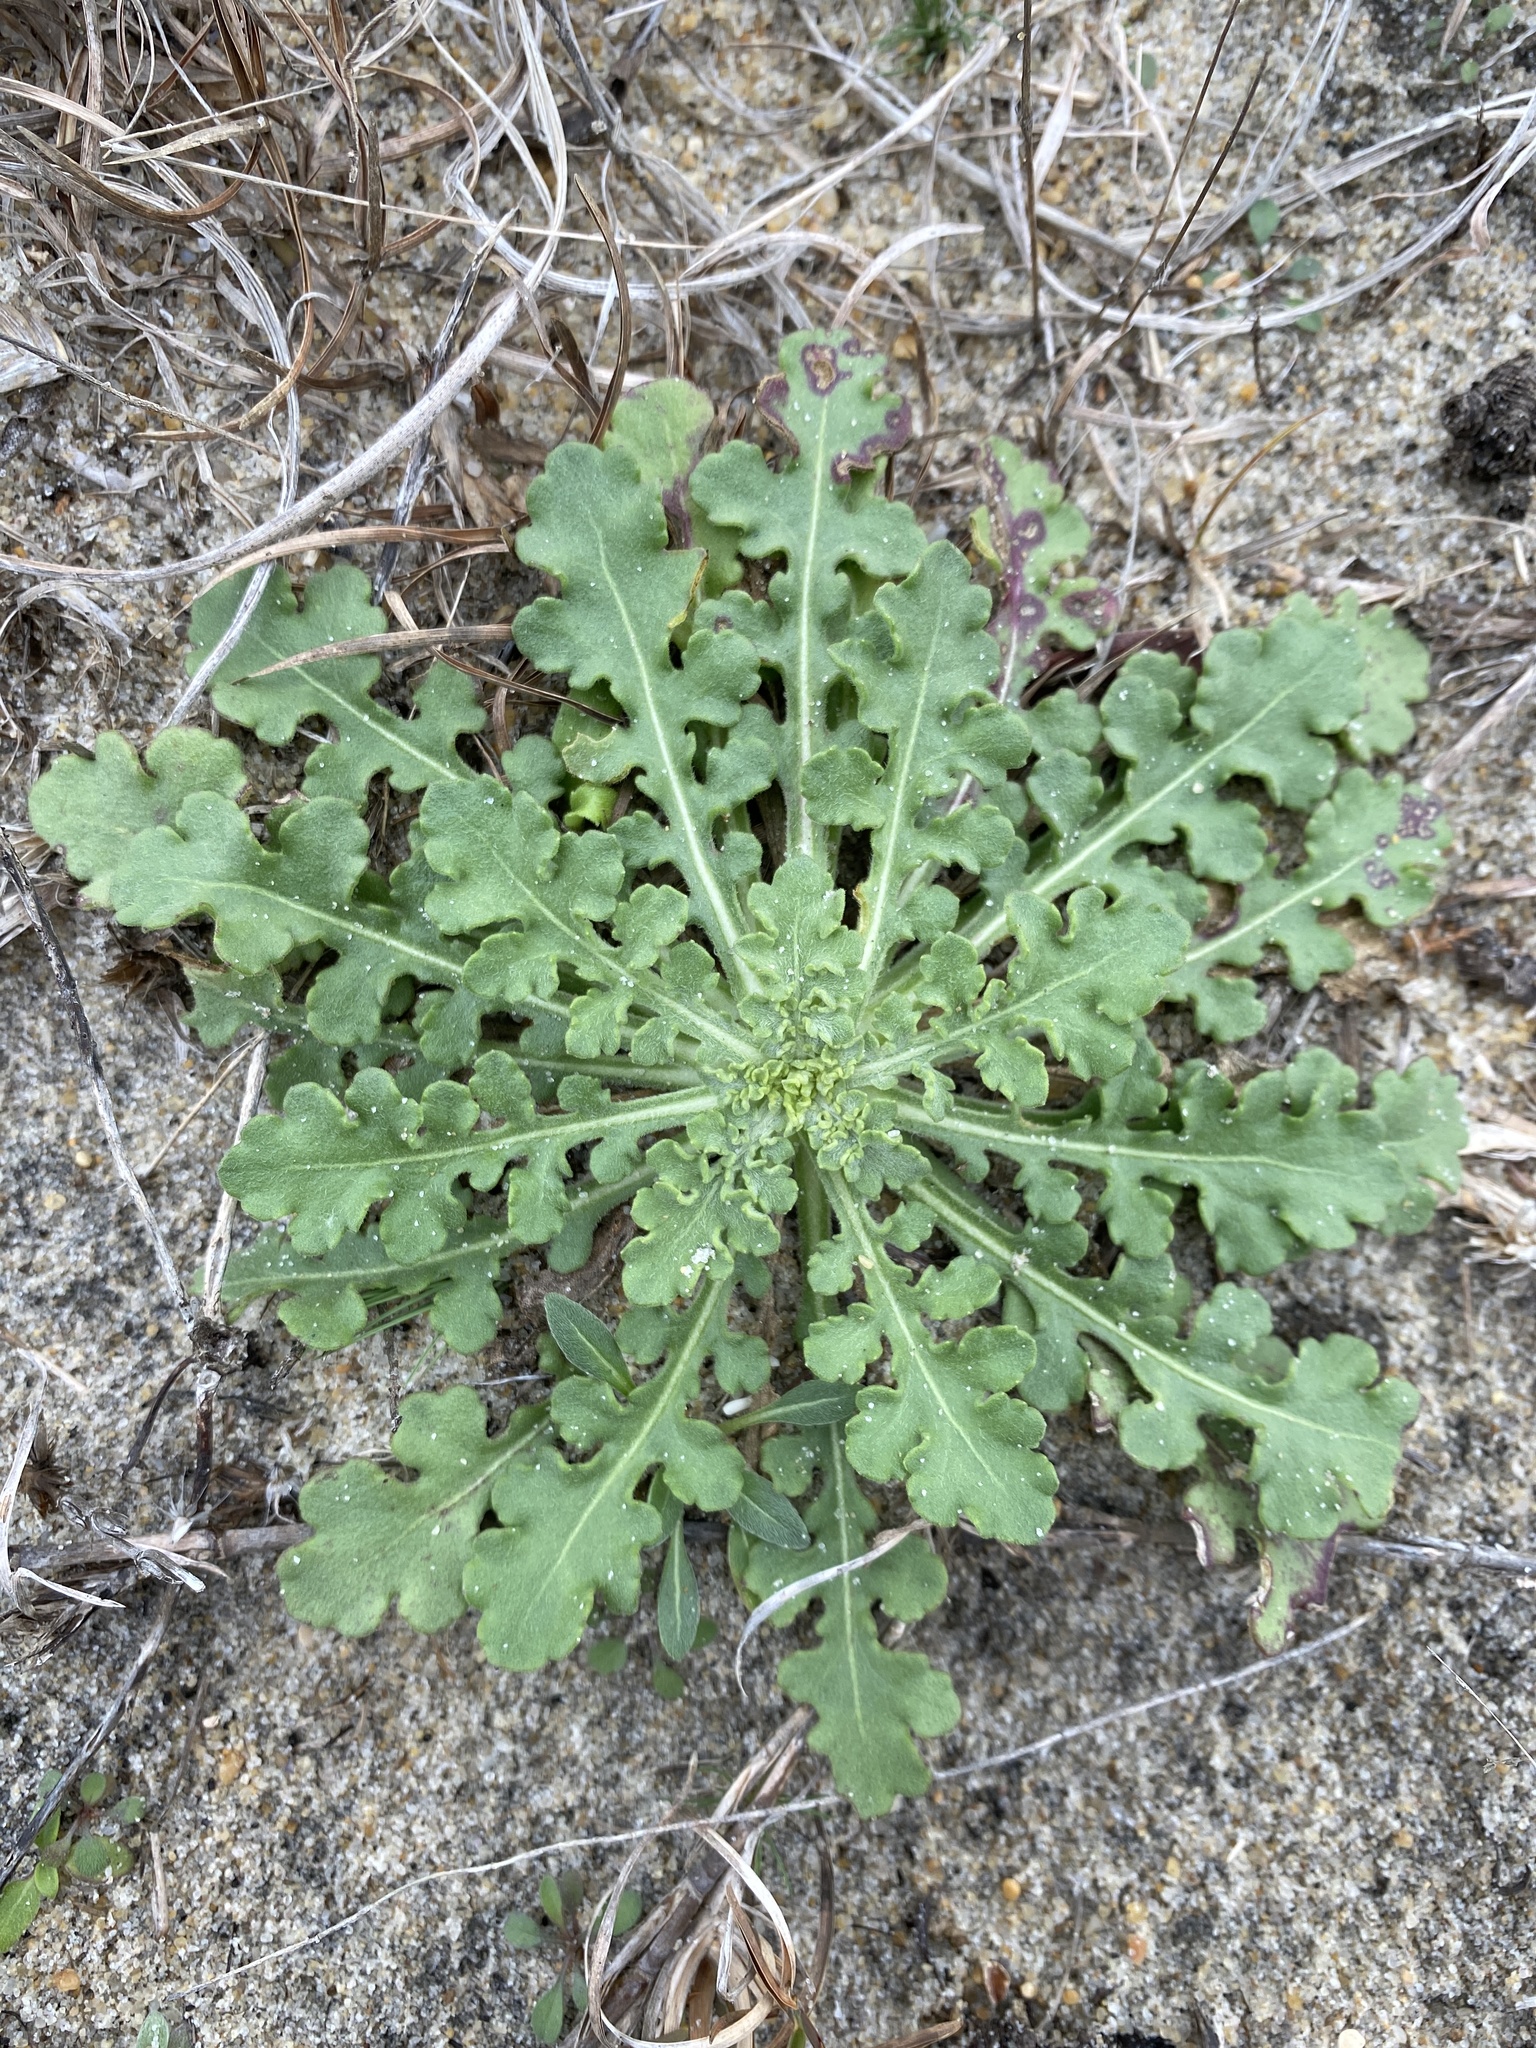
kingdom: Plantae
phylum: Tracheophyta
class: Magnoliopsida
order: Asterales
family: Asteraceae
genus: Gaillardia
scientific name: Gaillardia pulchella
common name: Firewheel
